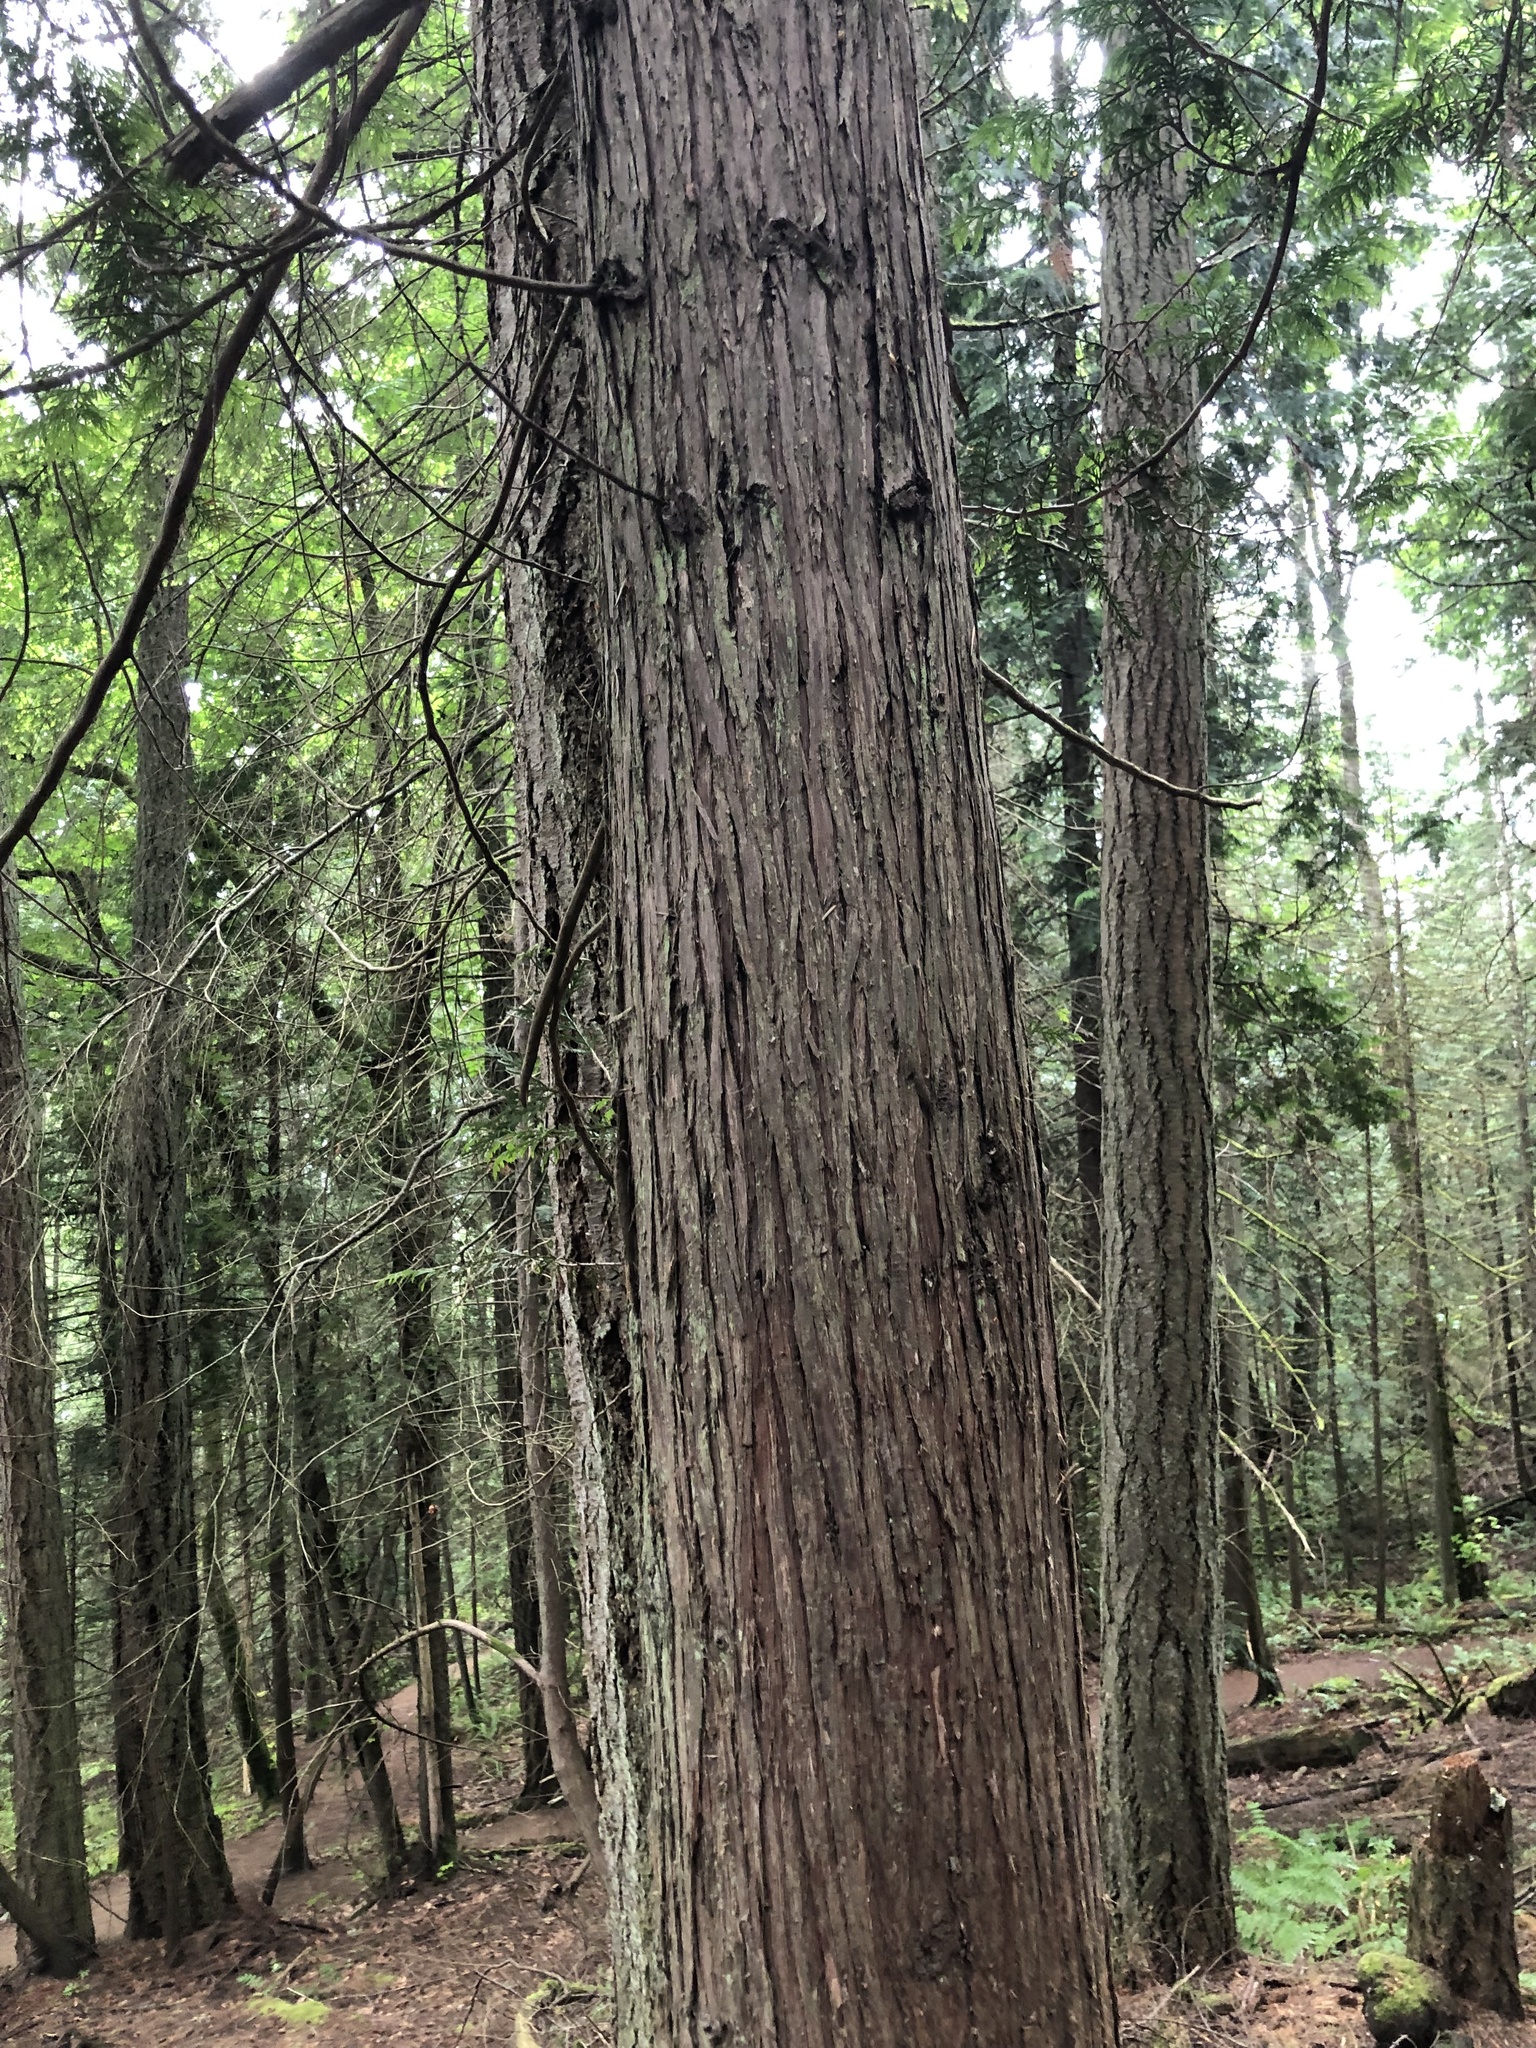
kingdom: Plantae
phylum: Tracheophyta
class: Pinopsida
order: Pinales
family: Cupressaceae
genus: Thuja
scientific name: Thuja plicata
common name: Western red-cedar
